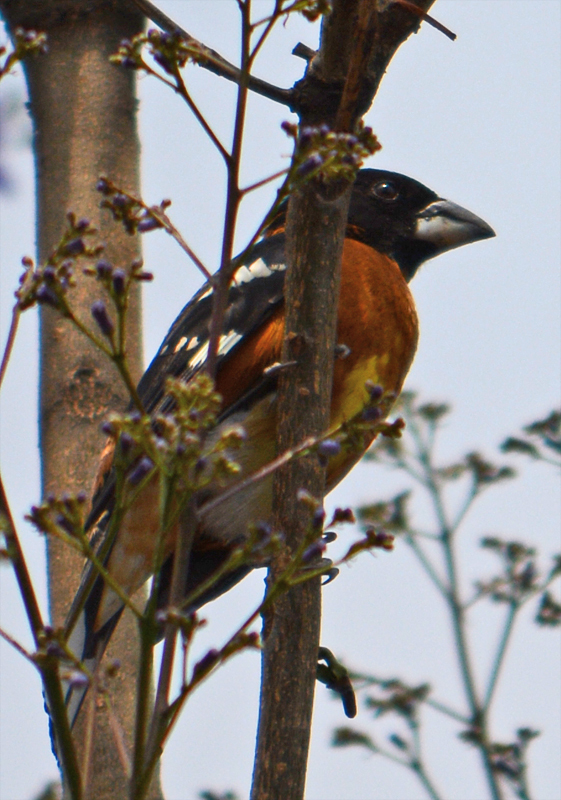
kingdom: Animalia
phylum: Chordata
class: Aves
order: Passeriformes
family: Cardinalidae
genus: Pheucticus
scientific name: Pheucticus melanocephalus
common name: Black-headed grosbeak
